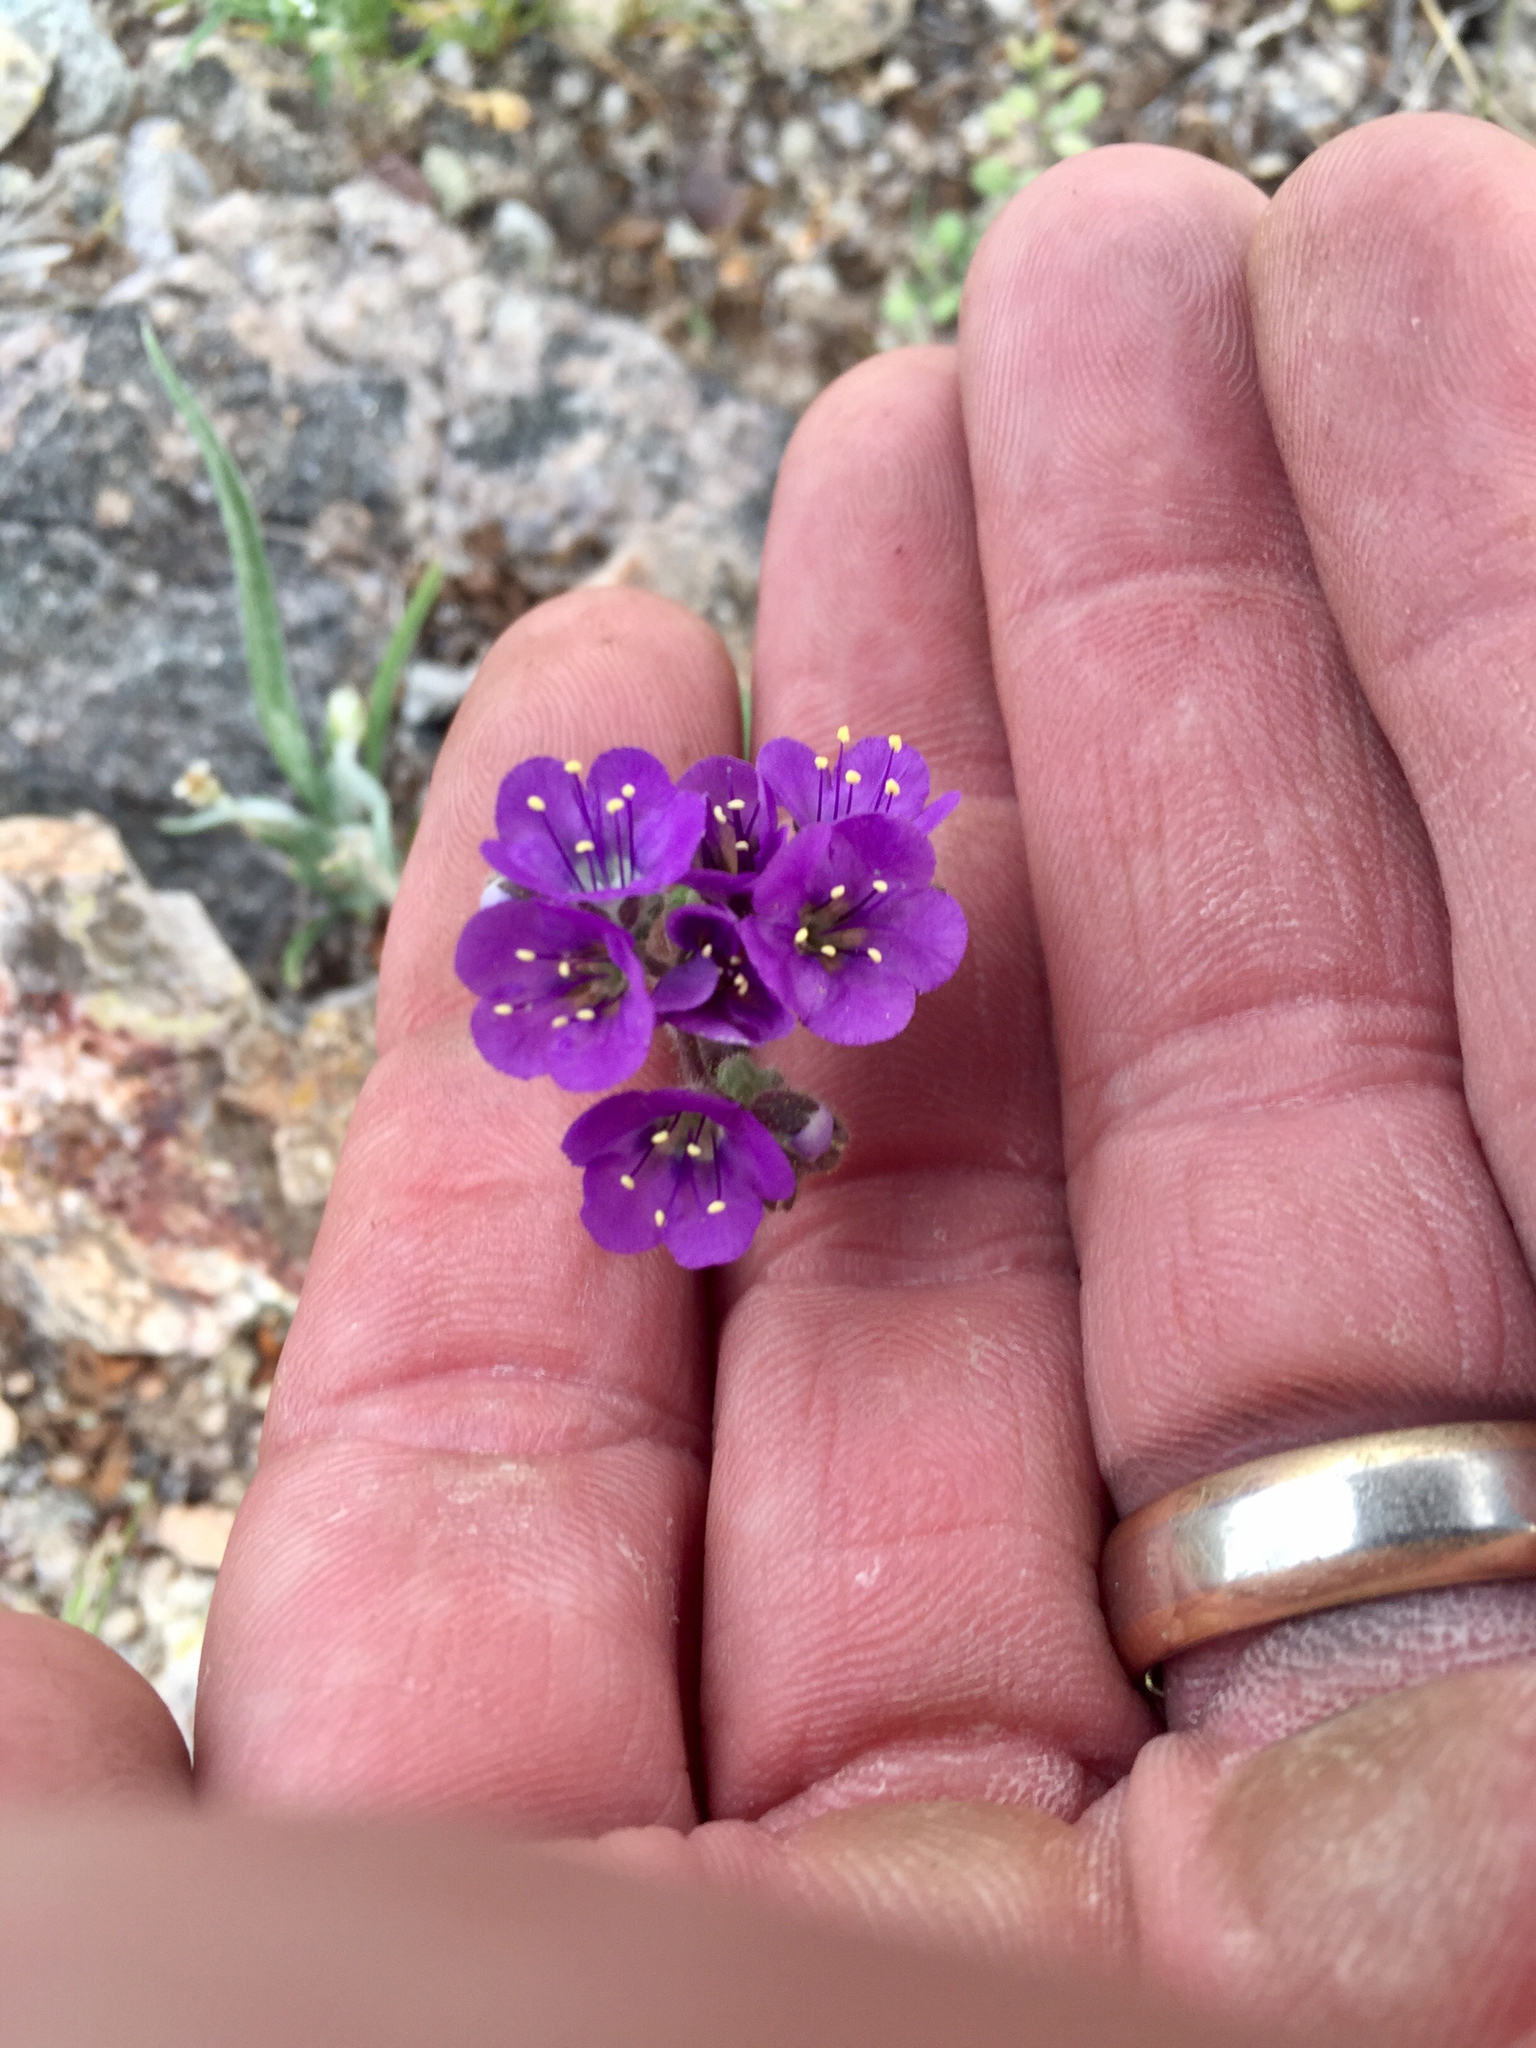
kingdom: Plantae
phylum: Tracheophyta
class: Magnoliopsida
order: Boraginales
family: Hydrophyllaceae
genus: Phacelia
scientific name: Phacelia crenulata
